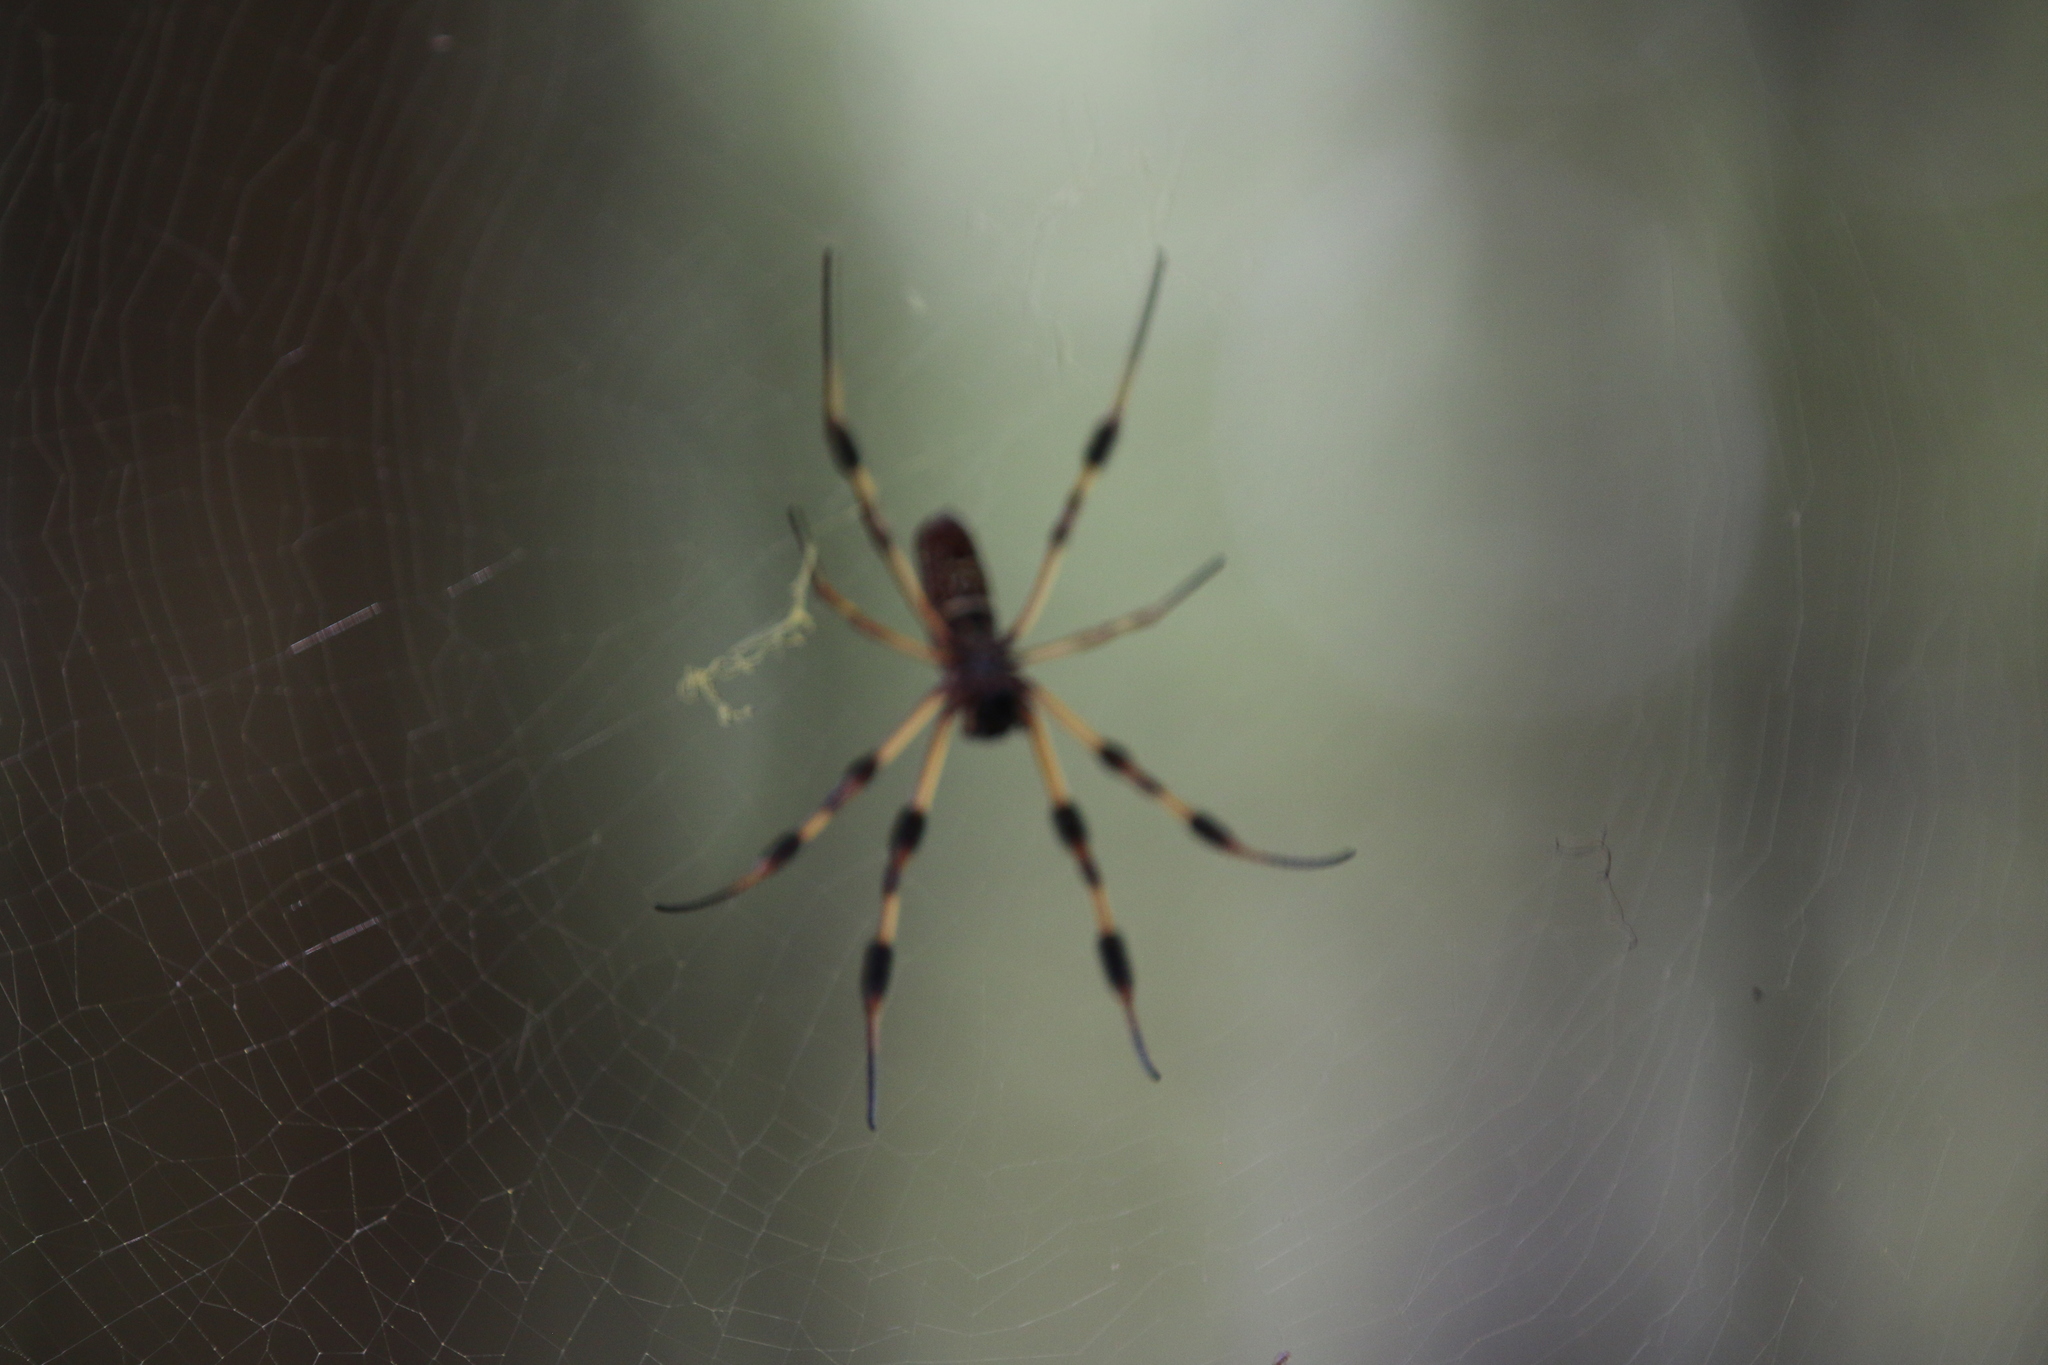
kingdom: Animalia
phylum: Arthropoda
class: Arachnida
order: Araneae
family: Araneidae
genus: Trichonephila
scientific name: Trichonephila clavipes
